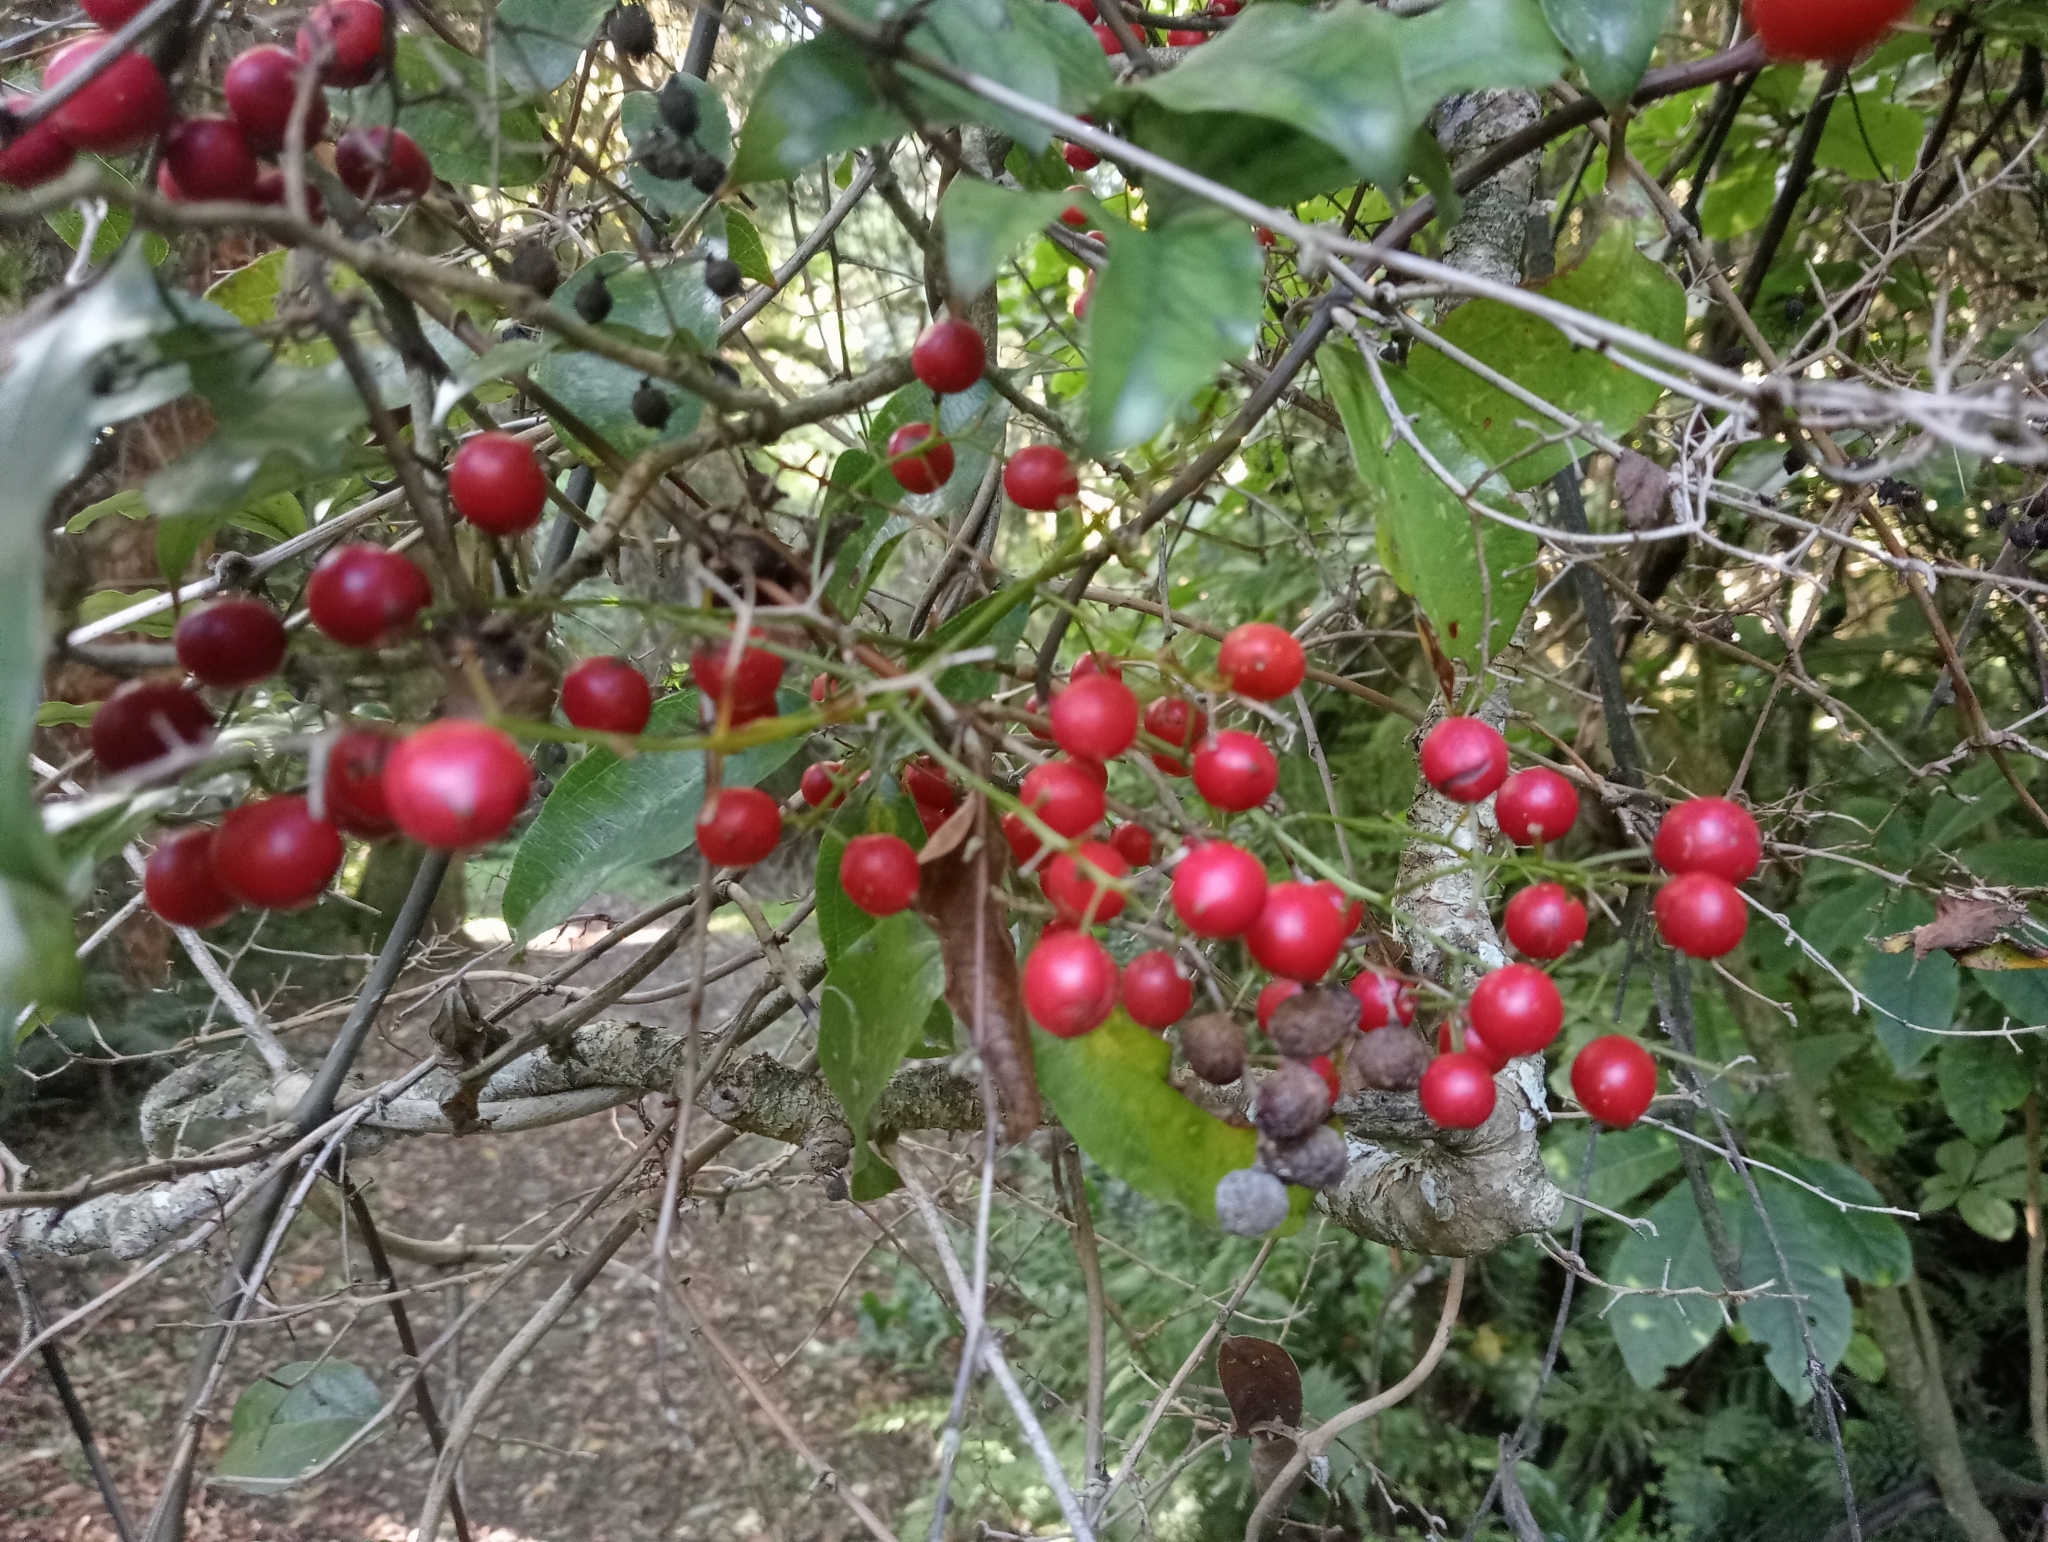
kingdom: Plantae
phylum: Tracheophyta
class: Liliopsida
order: Liliales
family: Ripogonaceae
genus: Ripogonum
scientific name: Ripogonum scandens
